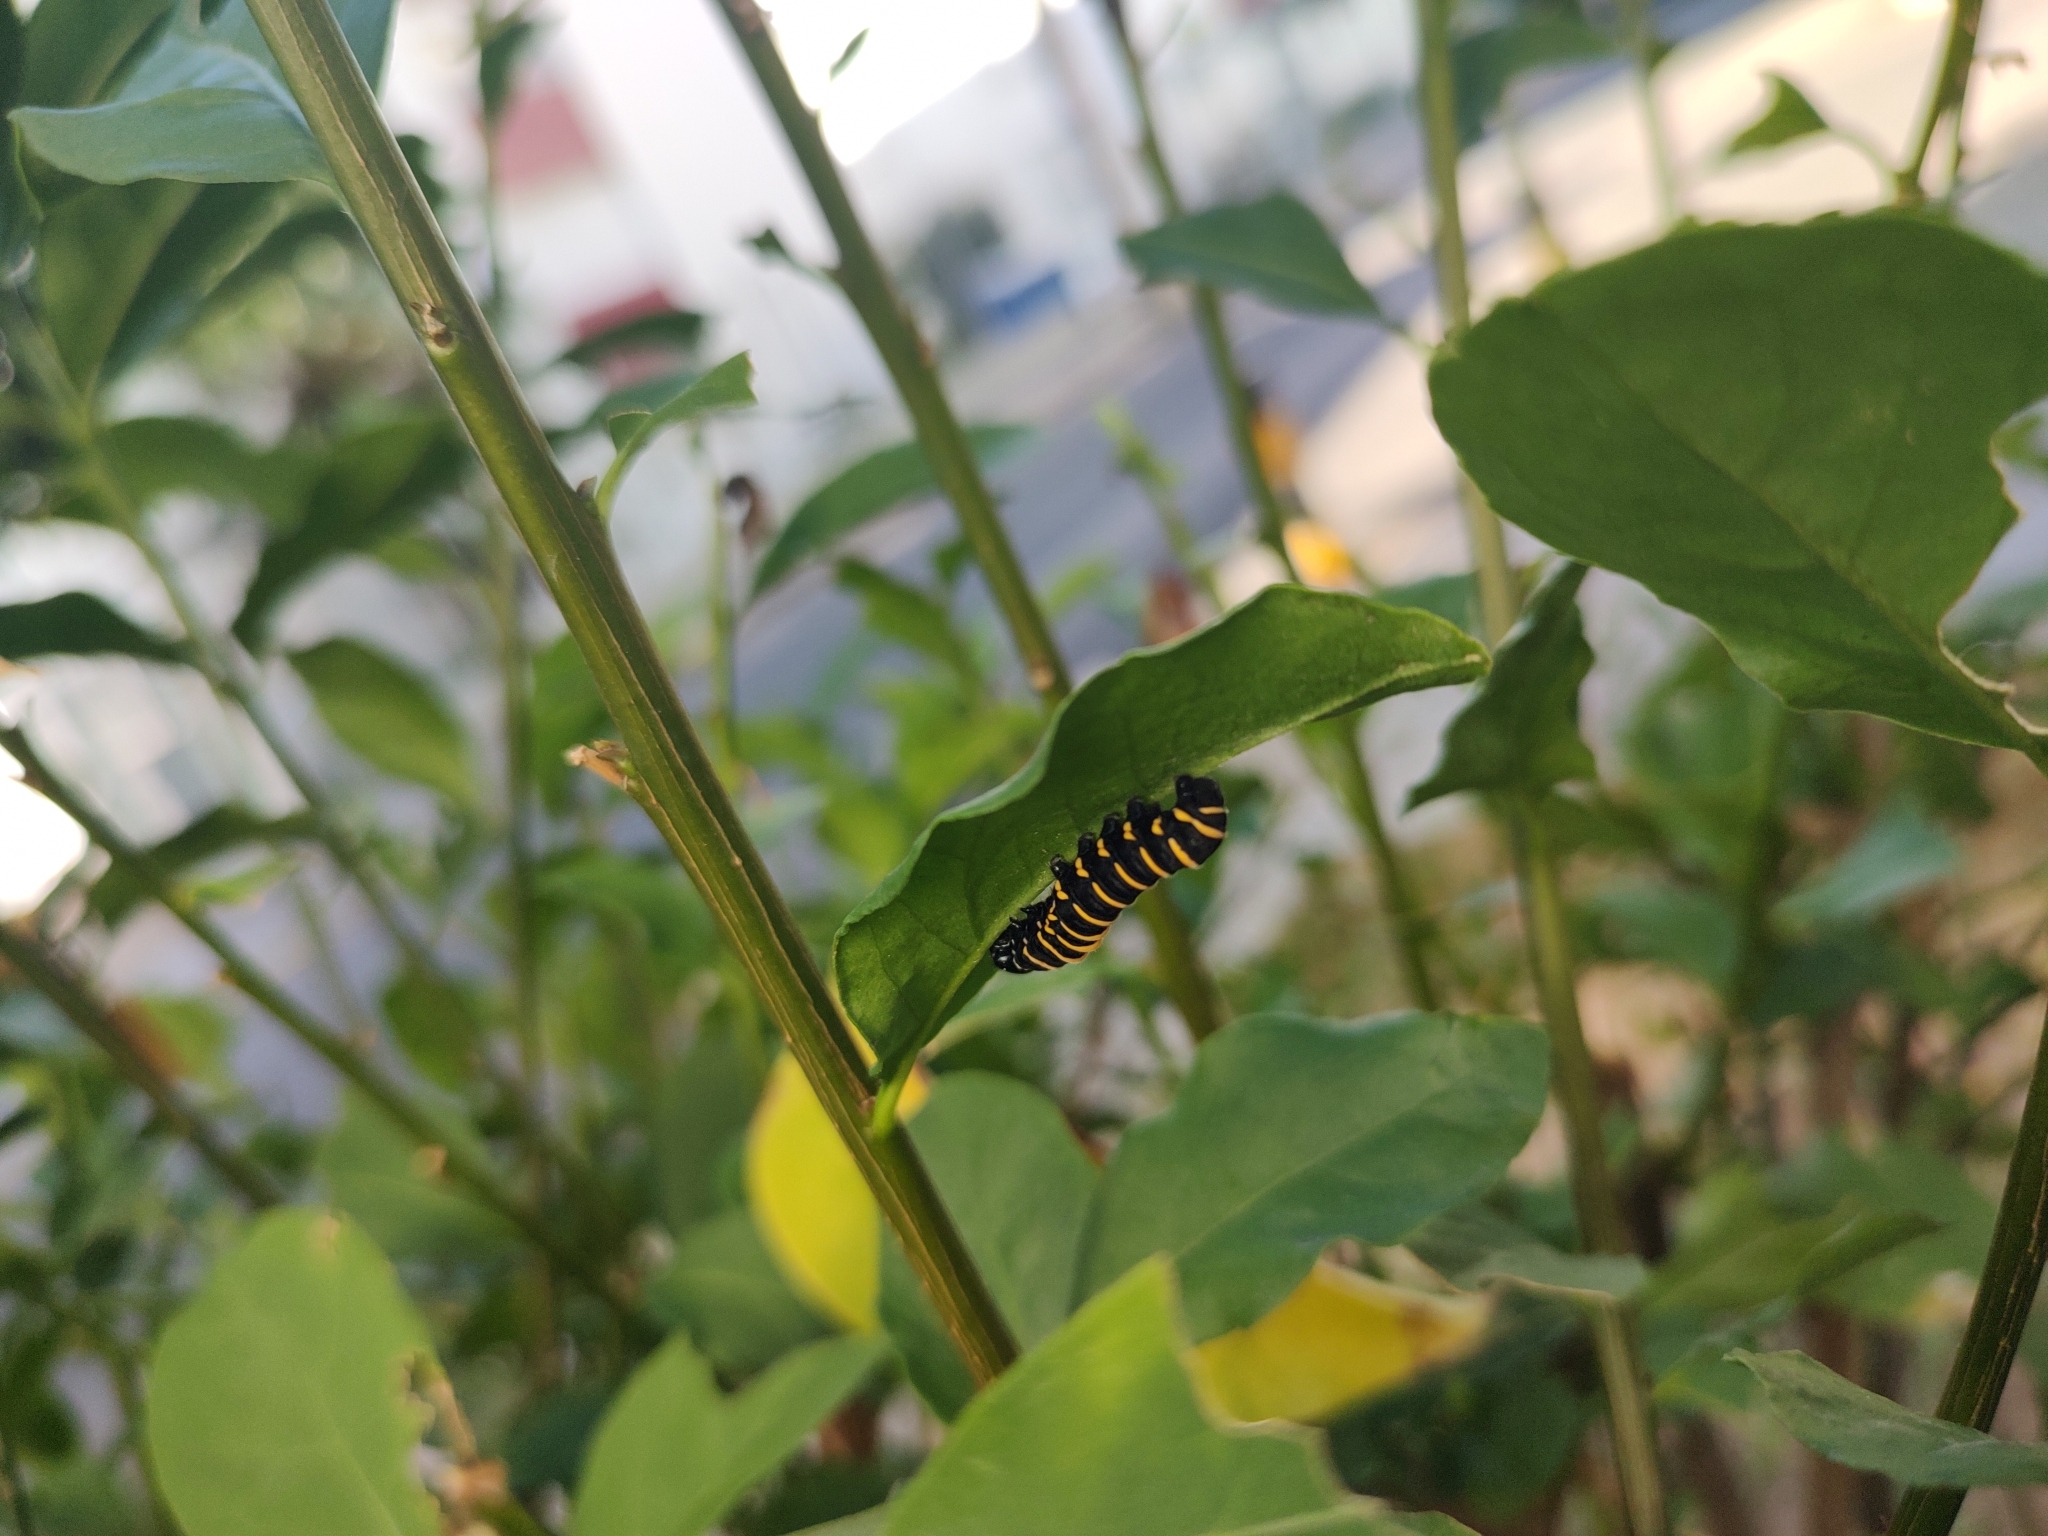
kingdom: Animalia
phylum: Arthropoda
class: Insecta
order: Lepidoptera
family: Nymphalidae
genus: Methona
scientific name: Methona themisto
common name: Themisto amberwing
